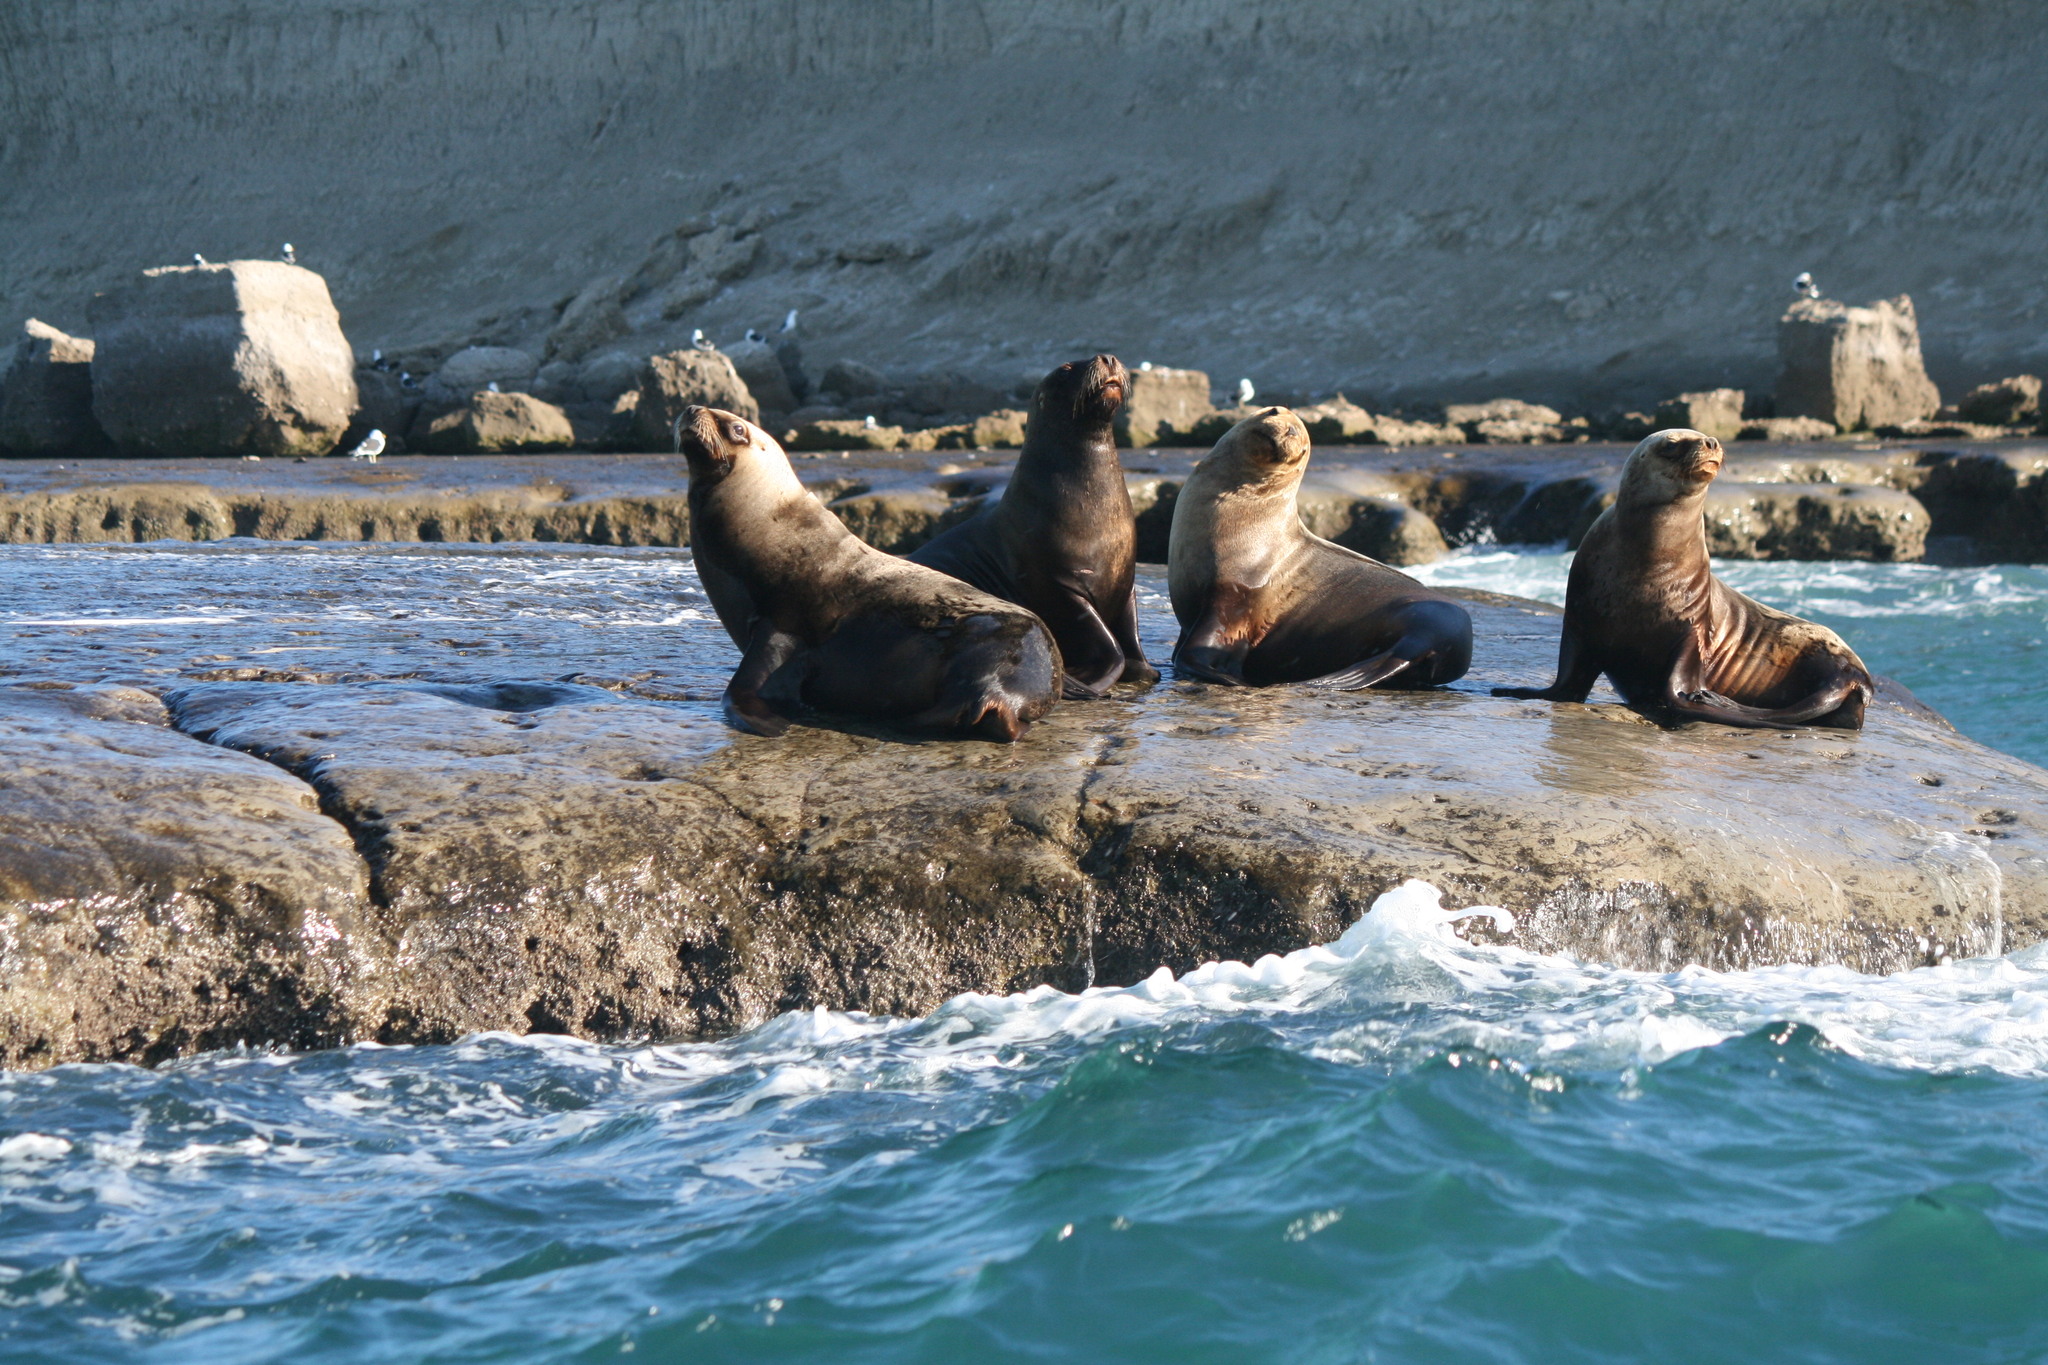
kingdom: Animalia
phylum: Chordata
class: Mammalia
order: Carnivora
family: Otariidae
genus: Otaria
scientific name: Otaria byronia
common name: South american sea lion
